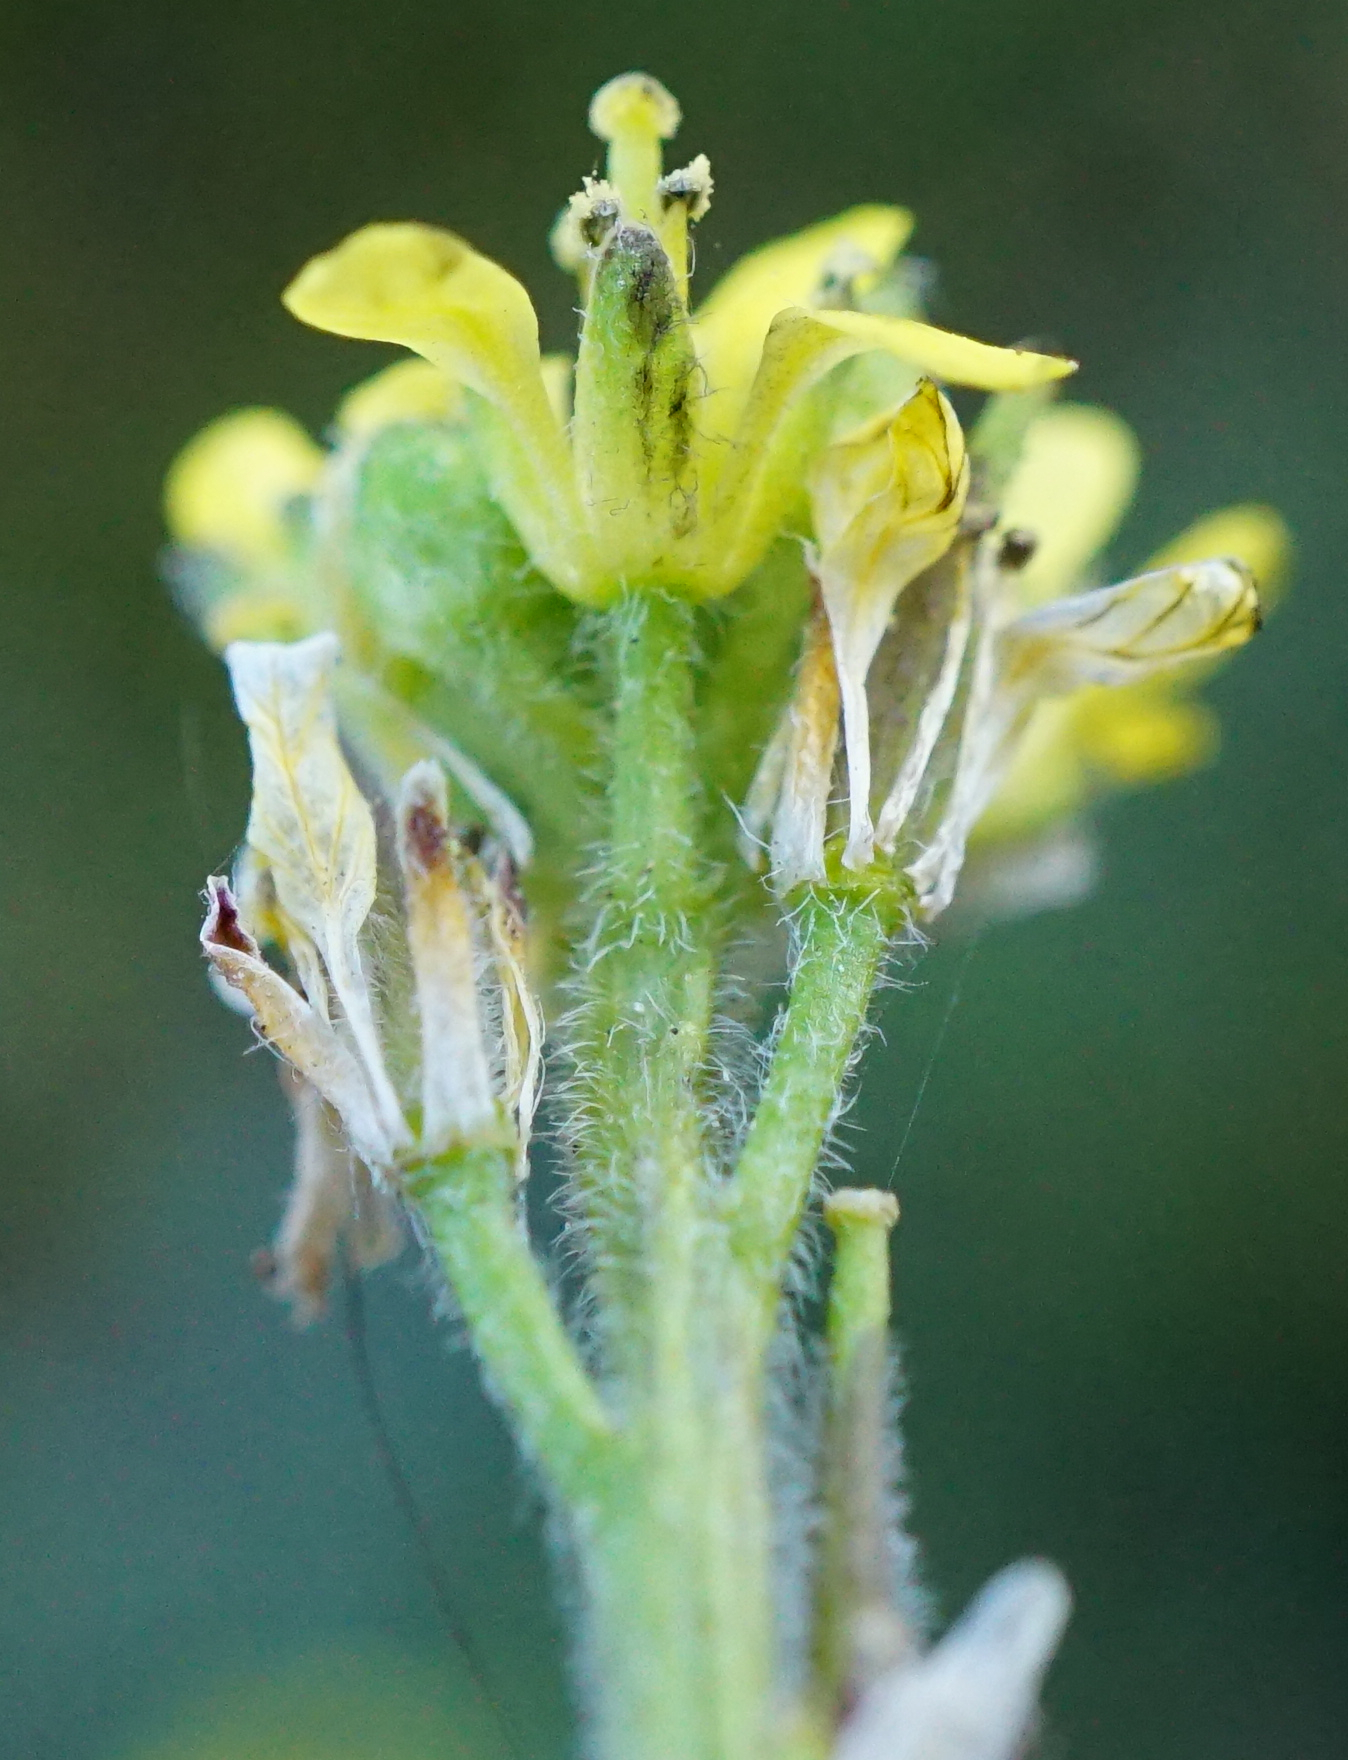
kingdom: Plantae
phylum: Tracheophyta
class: Magnoliopsida
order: Brassicales
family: Brassicaceae
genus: Sisymbrium
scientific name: Sisymbrium officinale
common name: Hedge mustard
